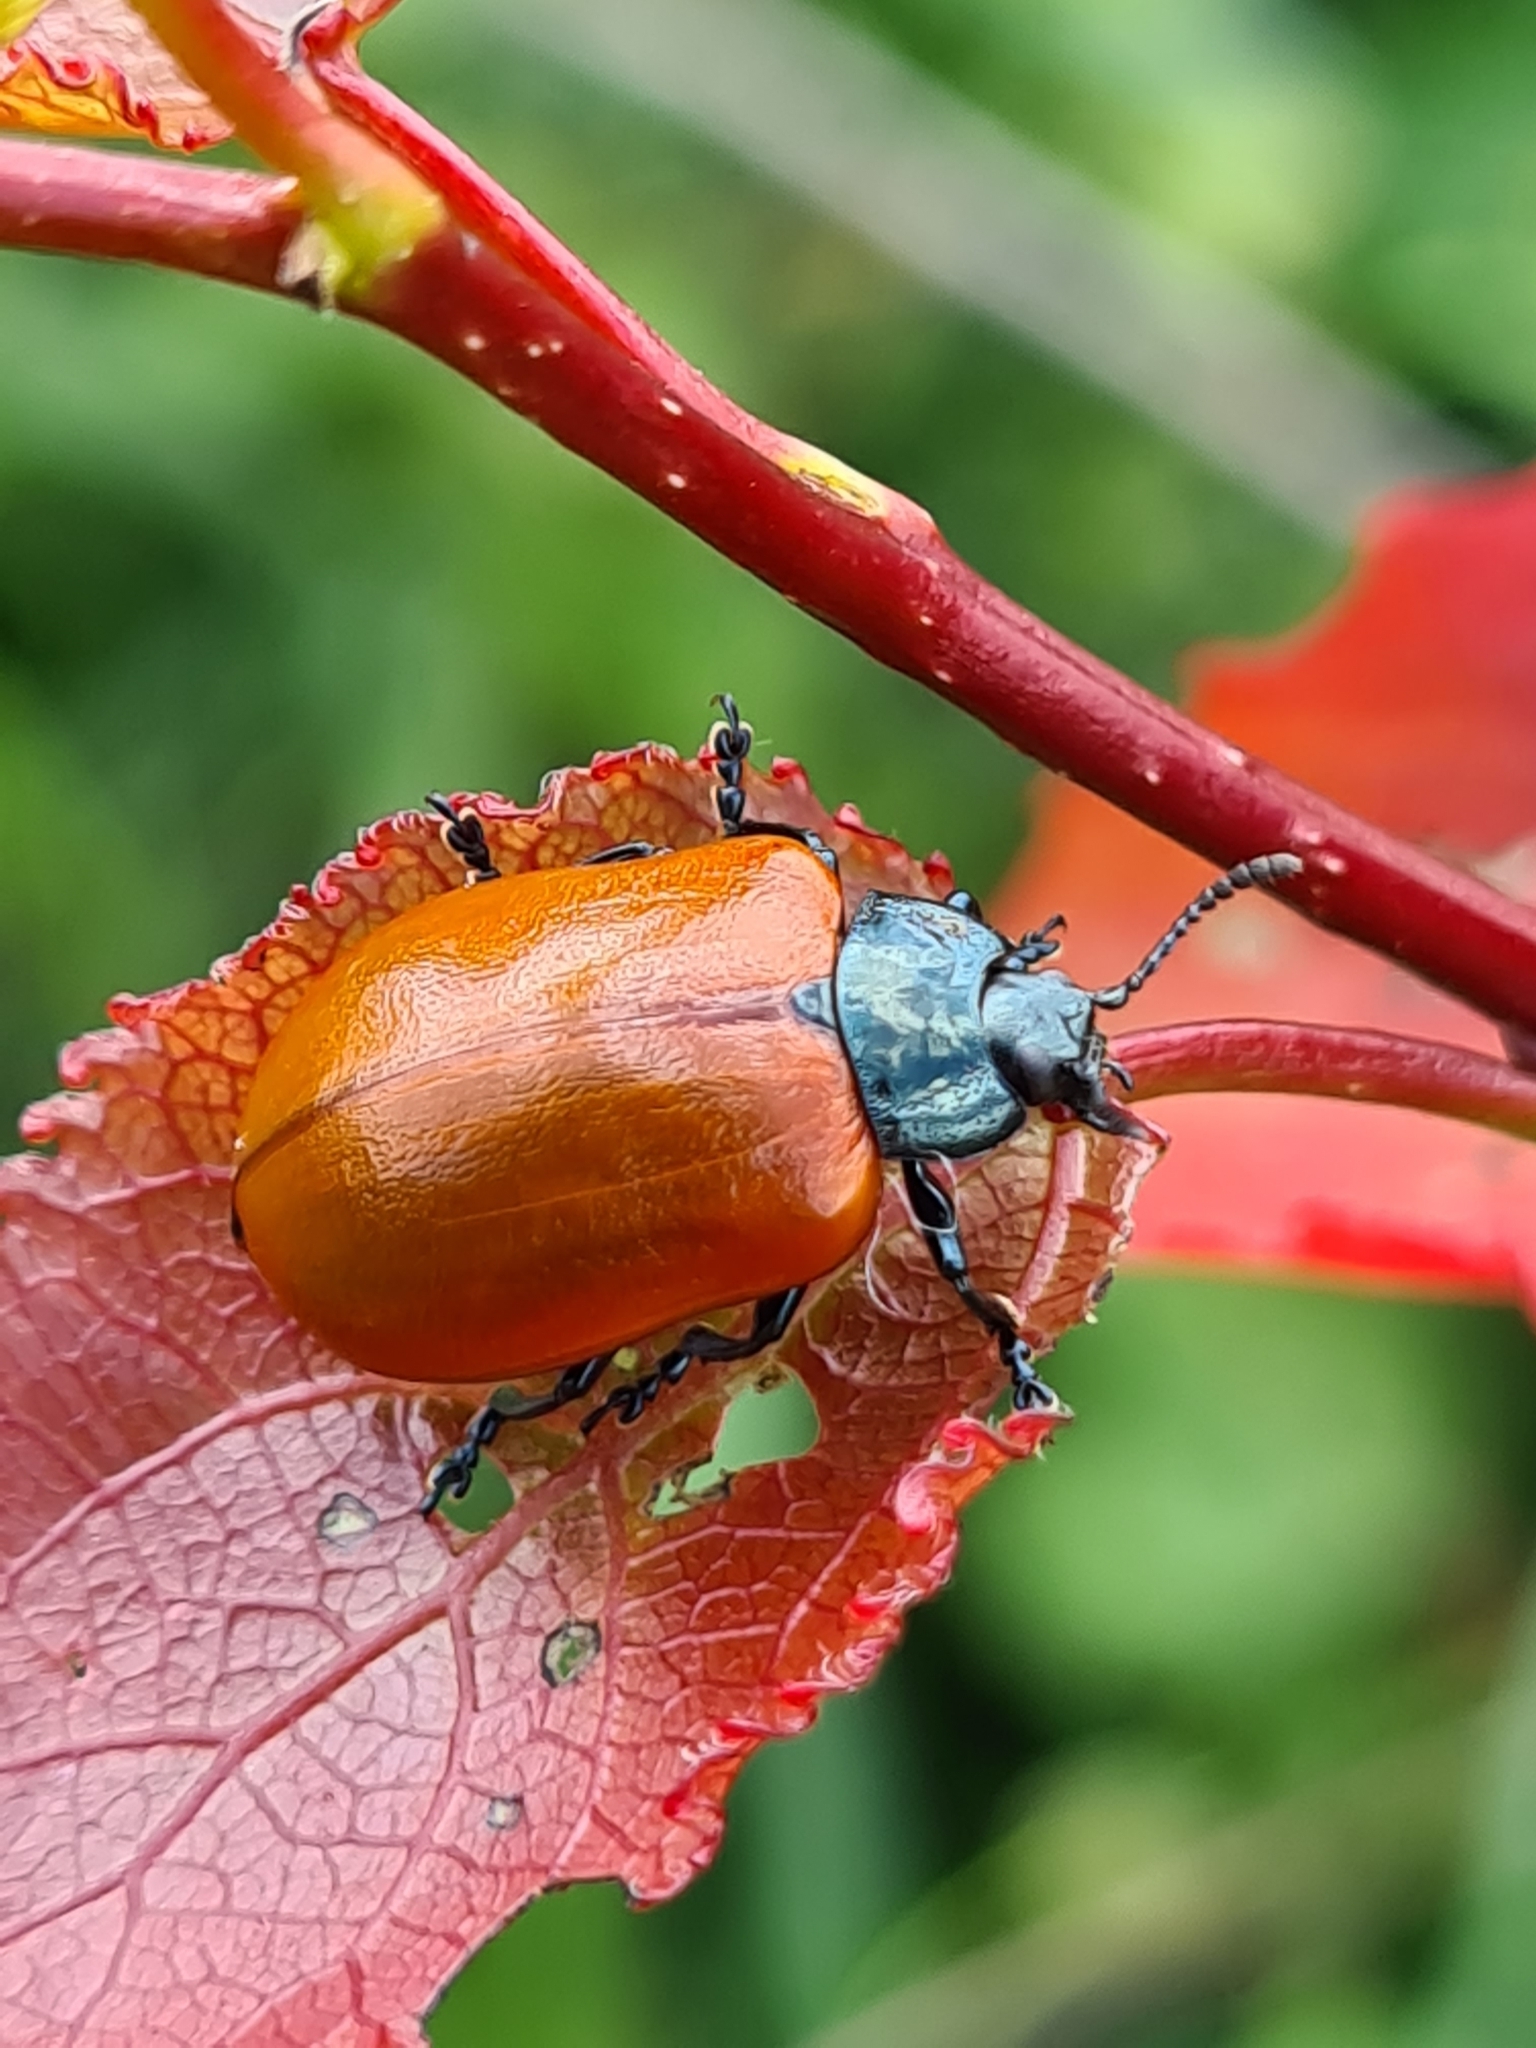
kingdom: Animalia
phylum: Arthropoda
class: Insecta
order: Coleoptera
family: Chrysomelidae
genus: Chrysomela
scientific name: Chrysomela populi
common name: Red poplar leaf beetle
